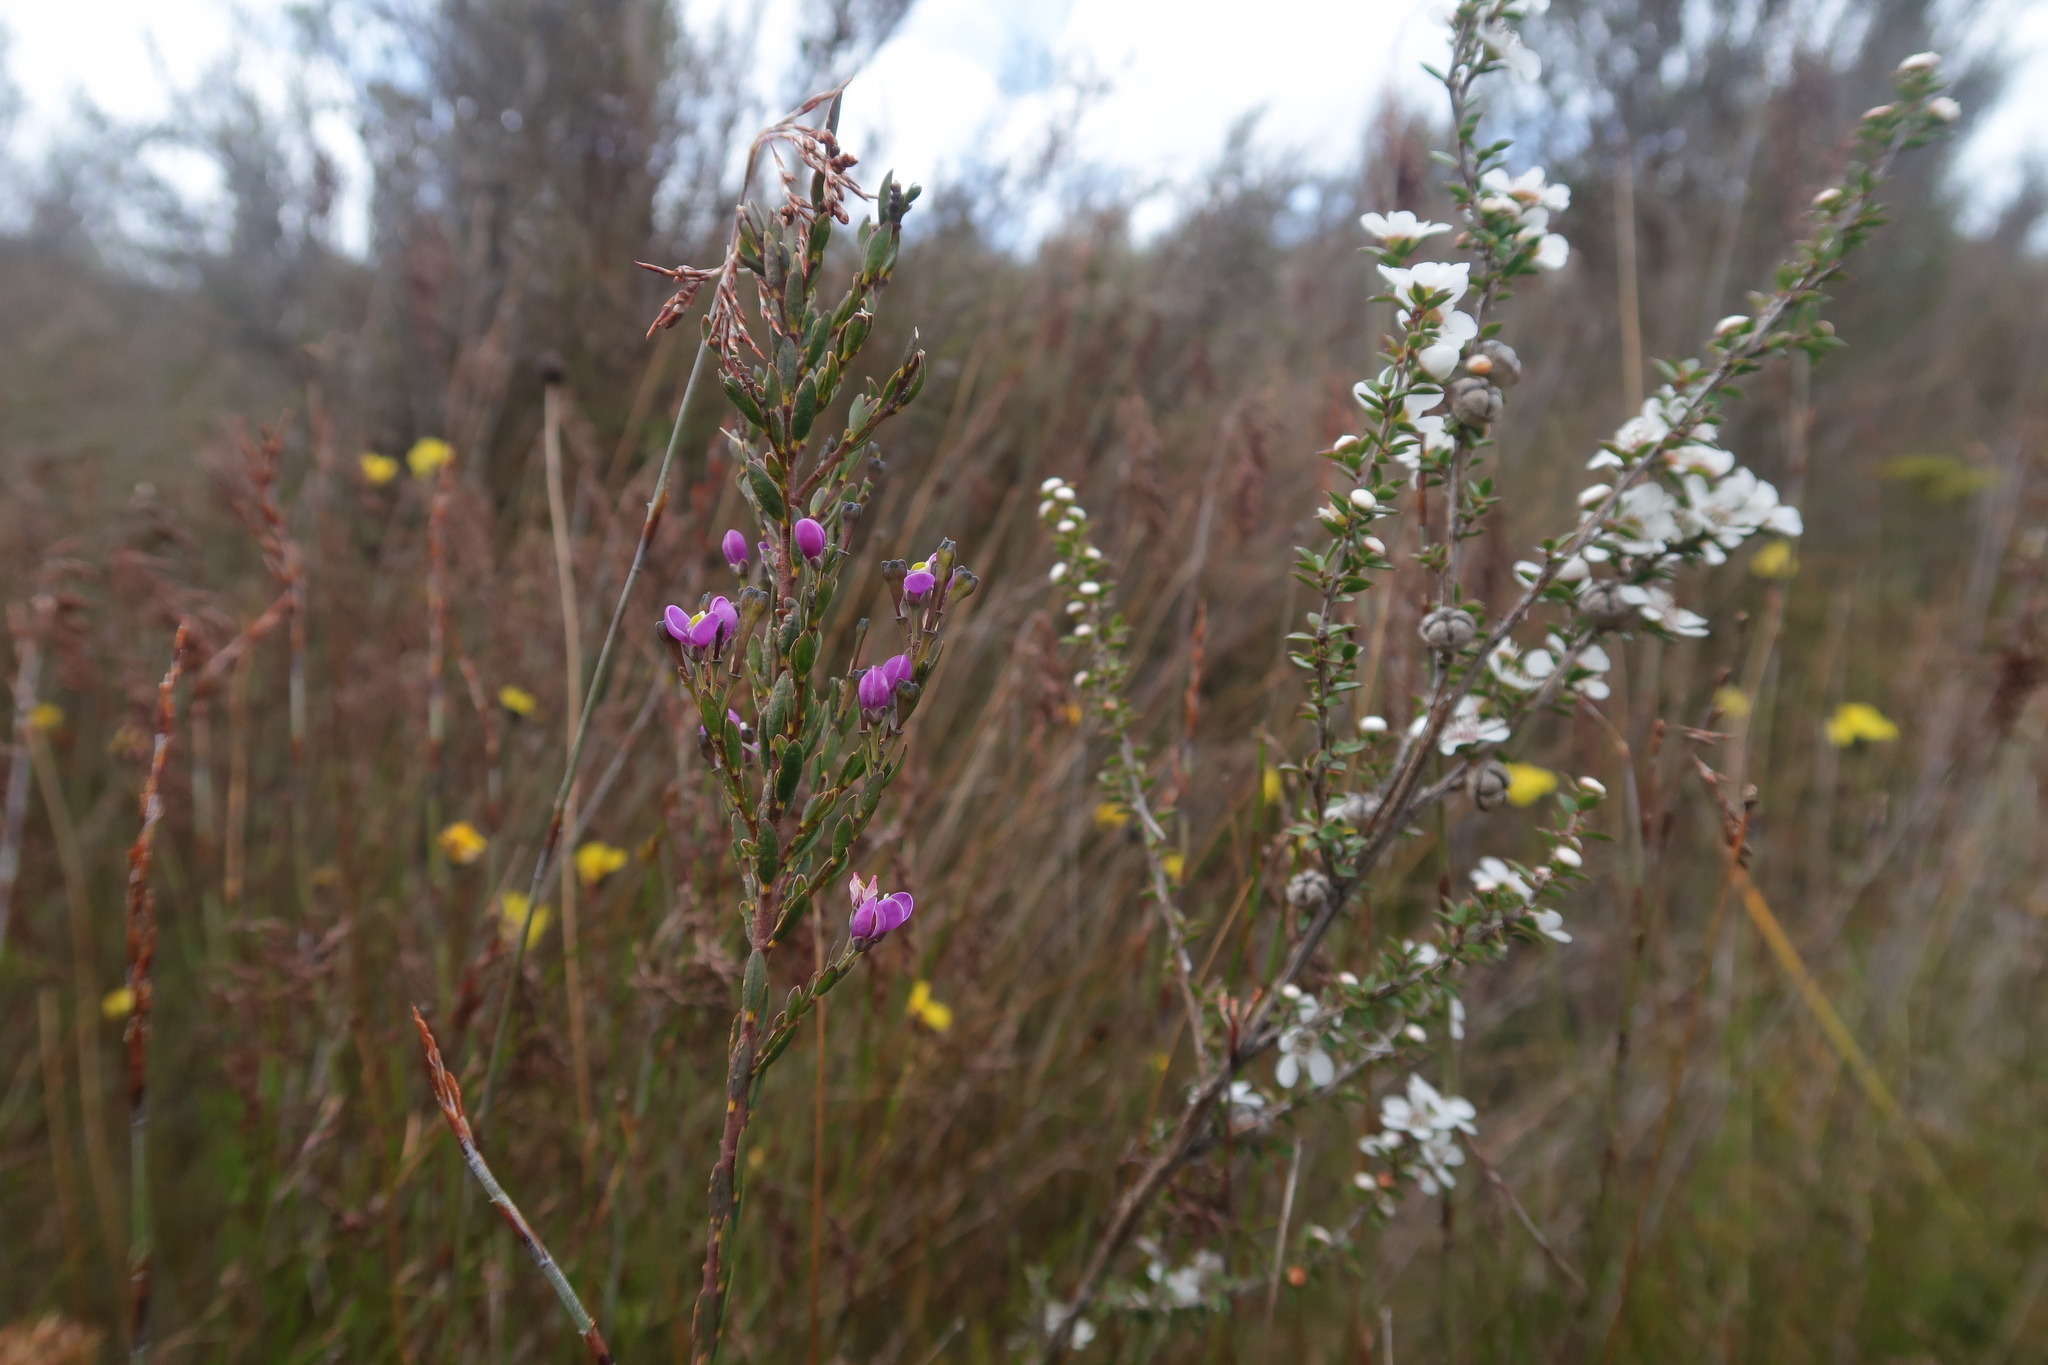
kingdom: Plantae
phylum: Tracheophyta
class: Magnoliopsida
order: Fabales
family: Polygalaceae
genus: Comesperma
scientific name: Comesperma retusum
